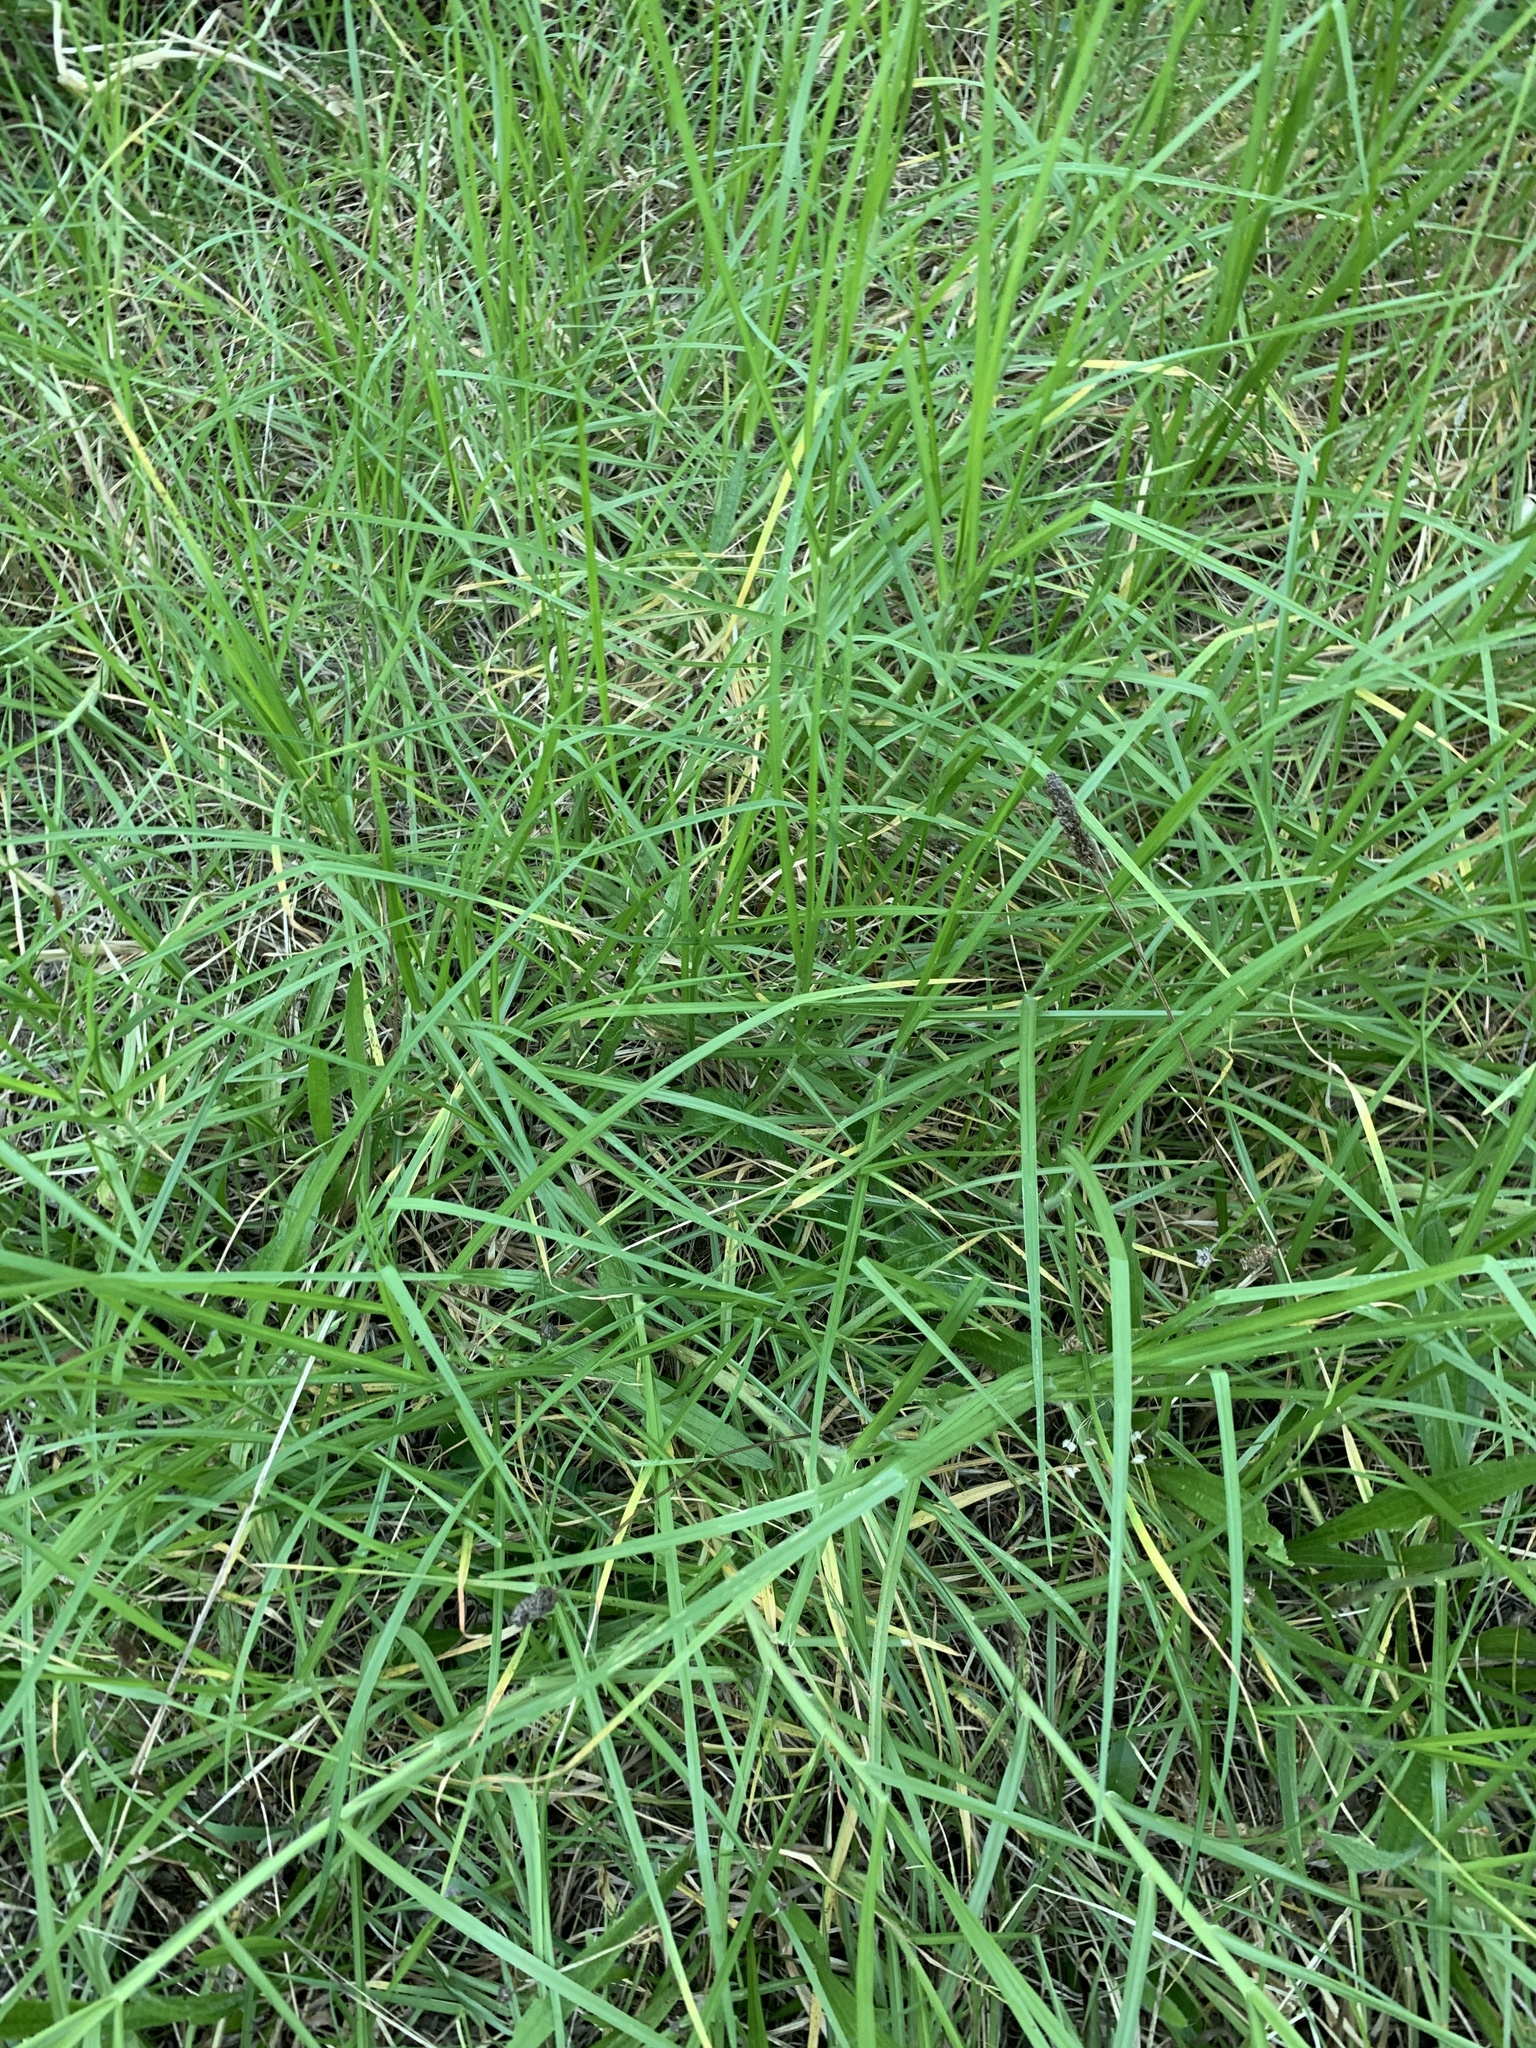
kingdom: Plantae
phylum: Tracheophyta
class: Liliopsida
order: Poales
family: Poaceae
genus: Cenchrus
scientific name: Cenchrus clandestinus
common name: Kikuyugrass
